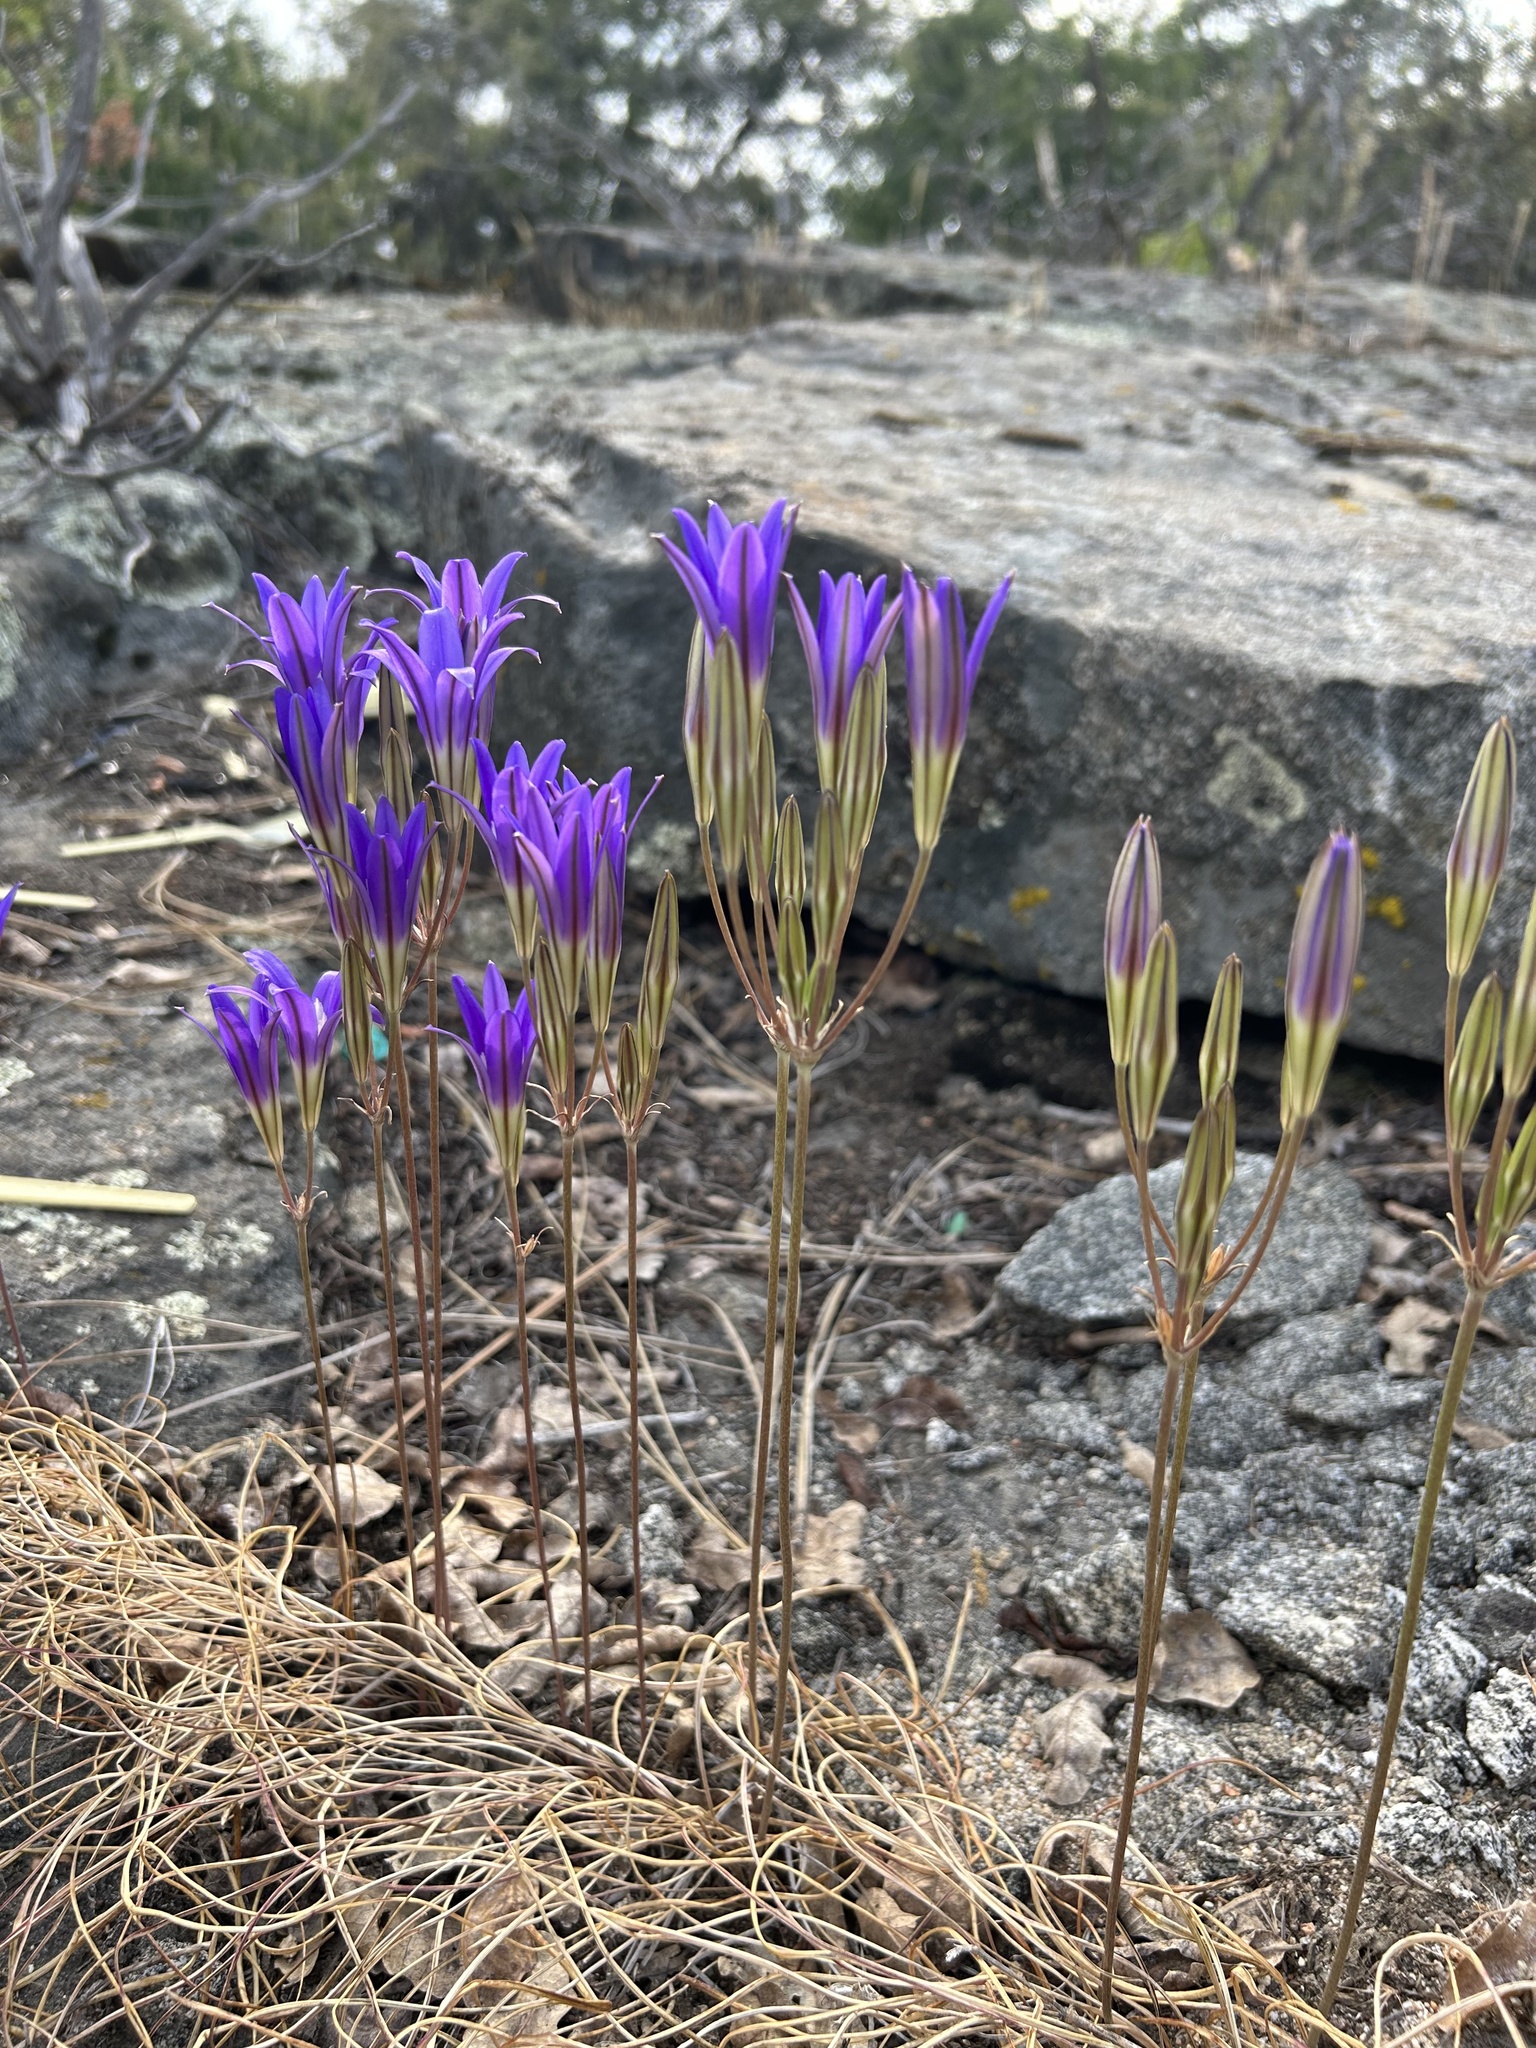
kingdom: Plantae
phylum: Tracheophyta
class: Liliopsida
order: Asparagales
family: Asparagaceae
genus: Brodiaea
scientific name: Brodiaea elegans
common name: Elegant cluster-lily
